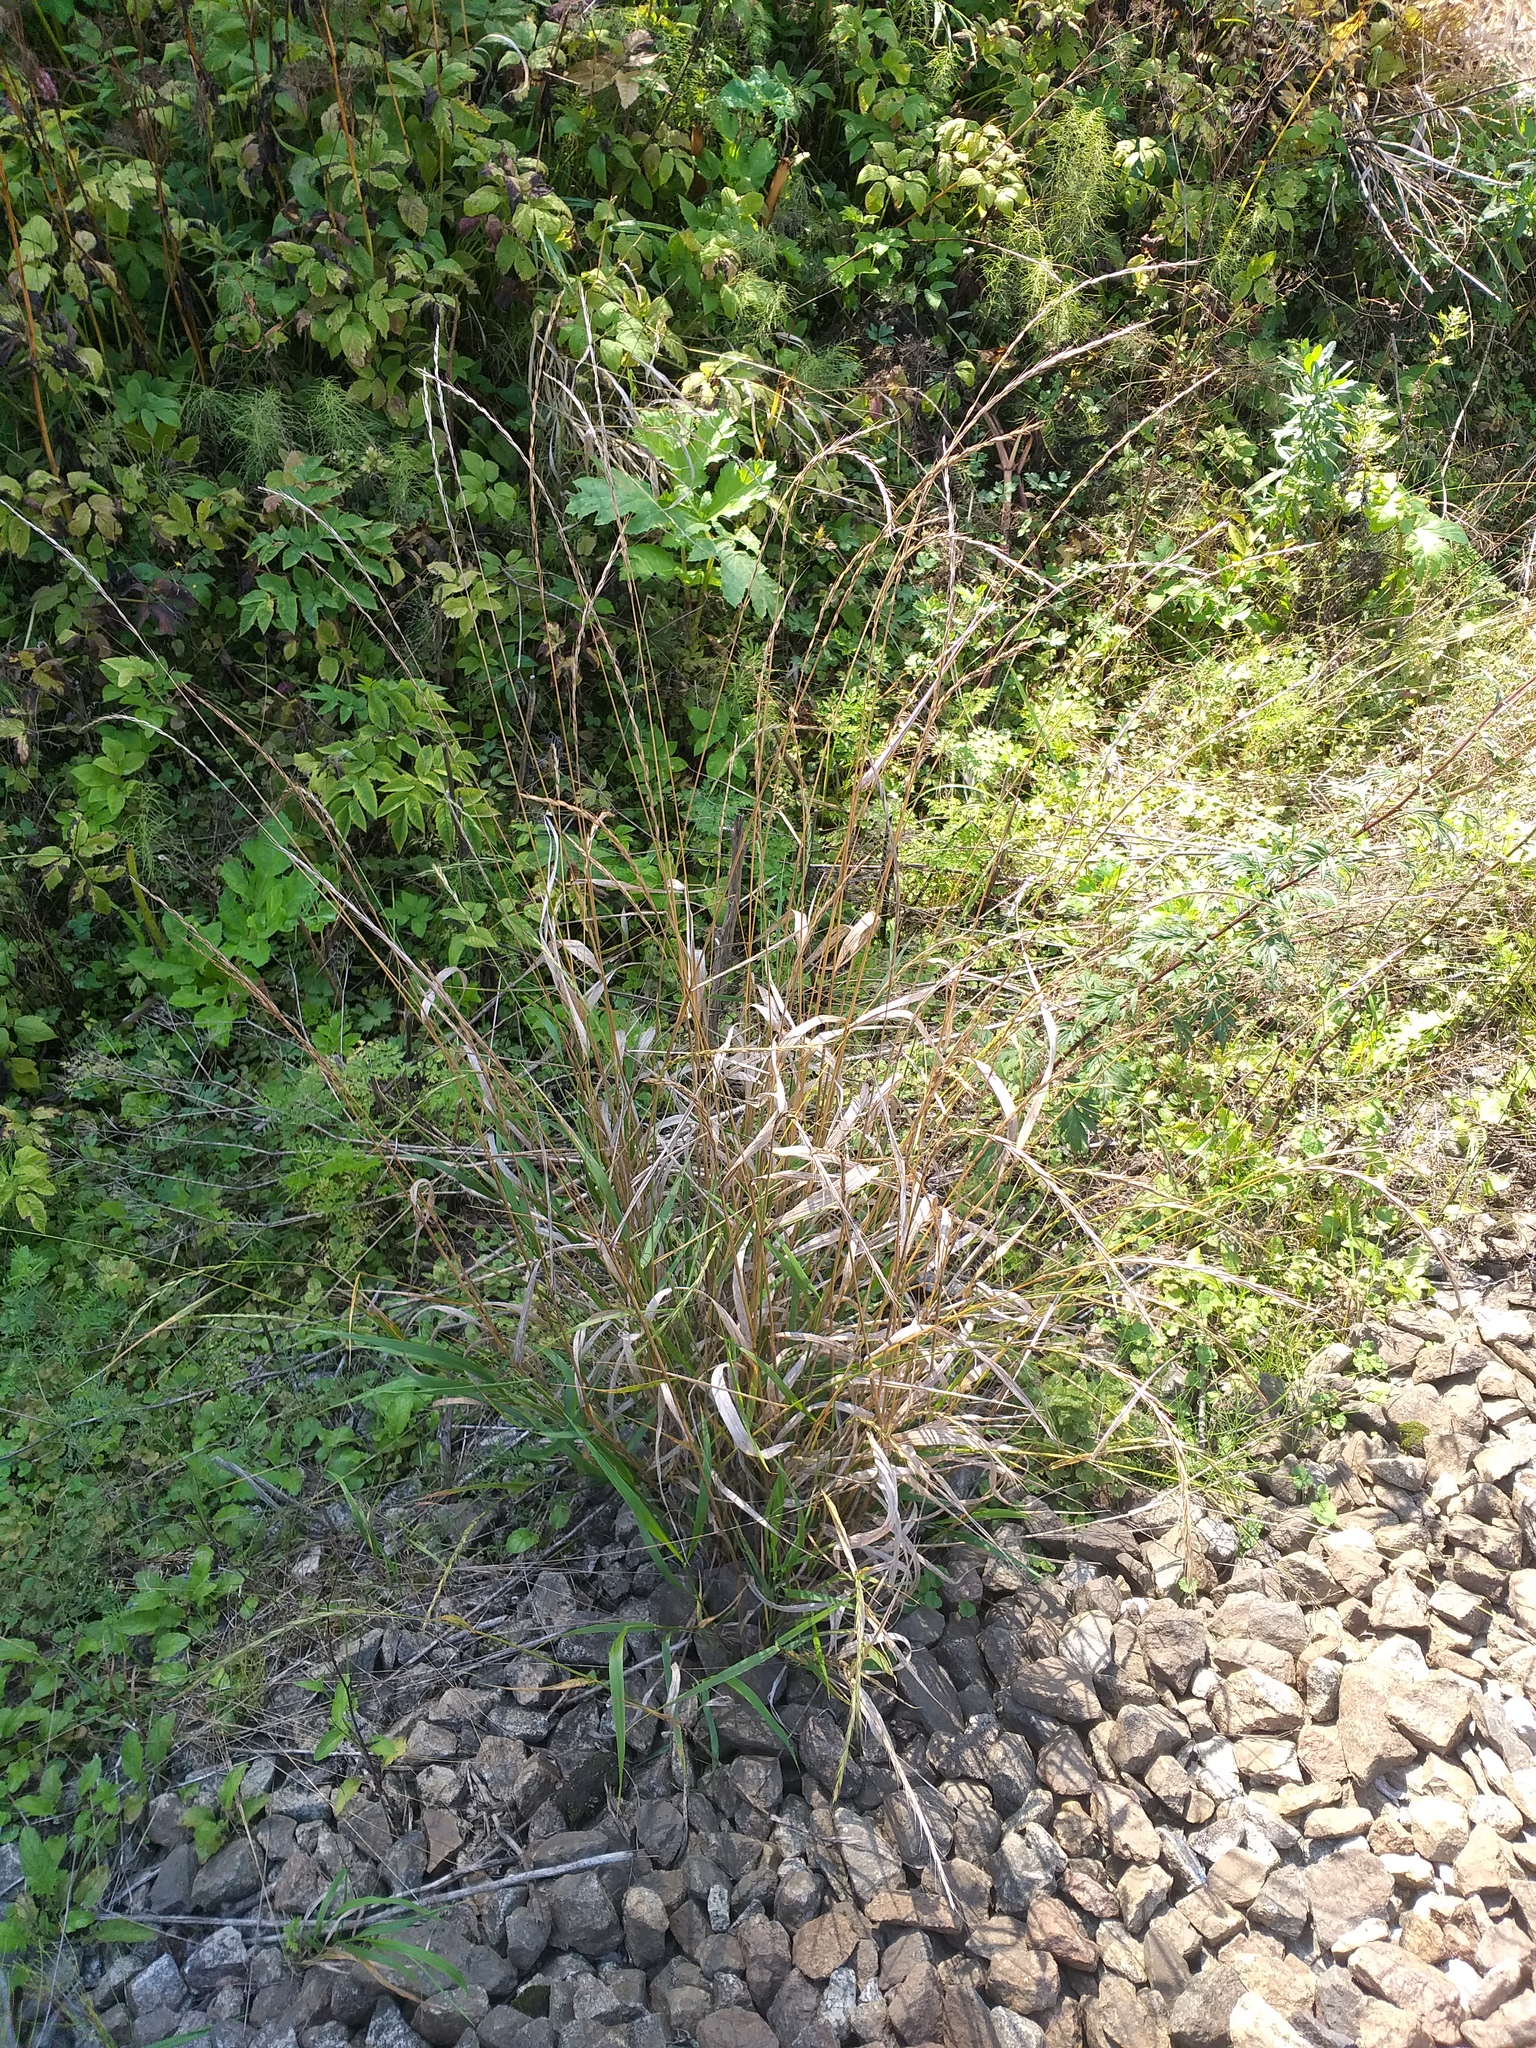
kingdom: Plantae
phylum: Tracheophyta
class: Liliopsida
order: Poales
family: Poaceae
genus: Elymus
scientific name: Elymus caninus
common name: Bearded couch
